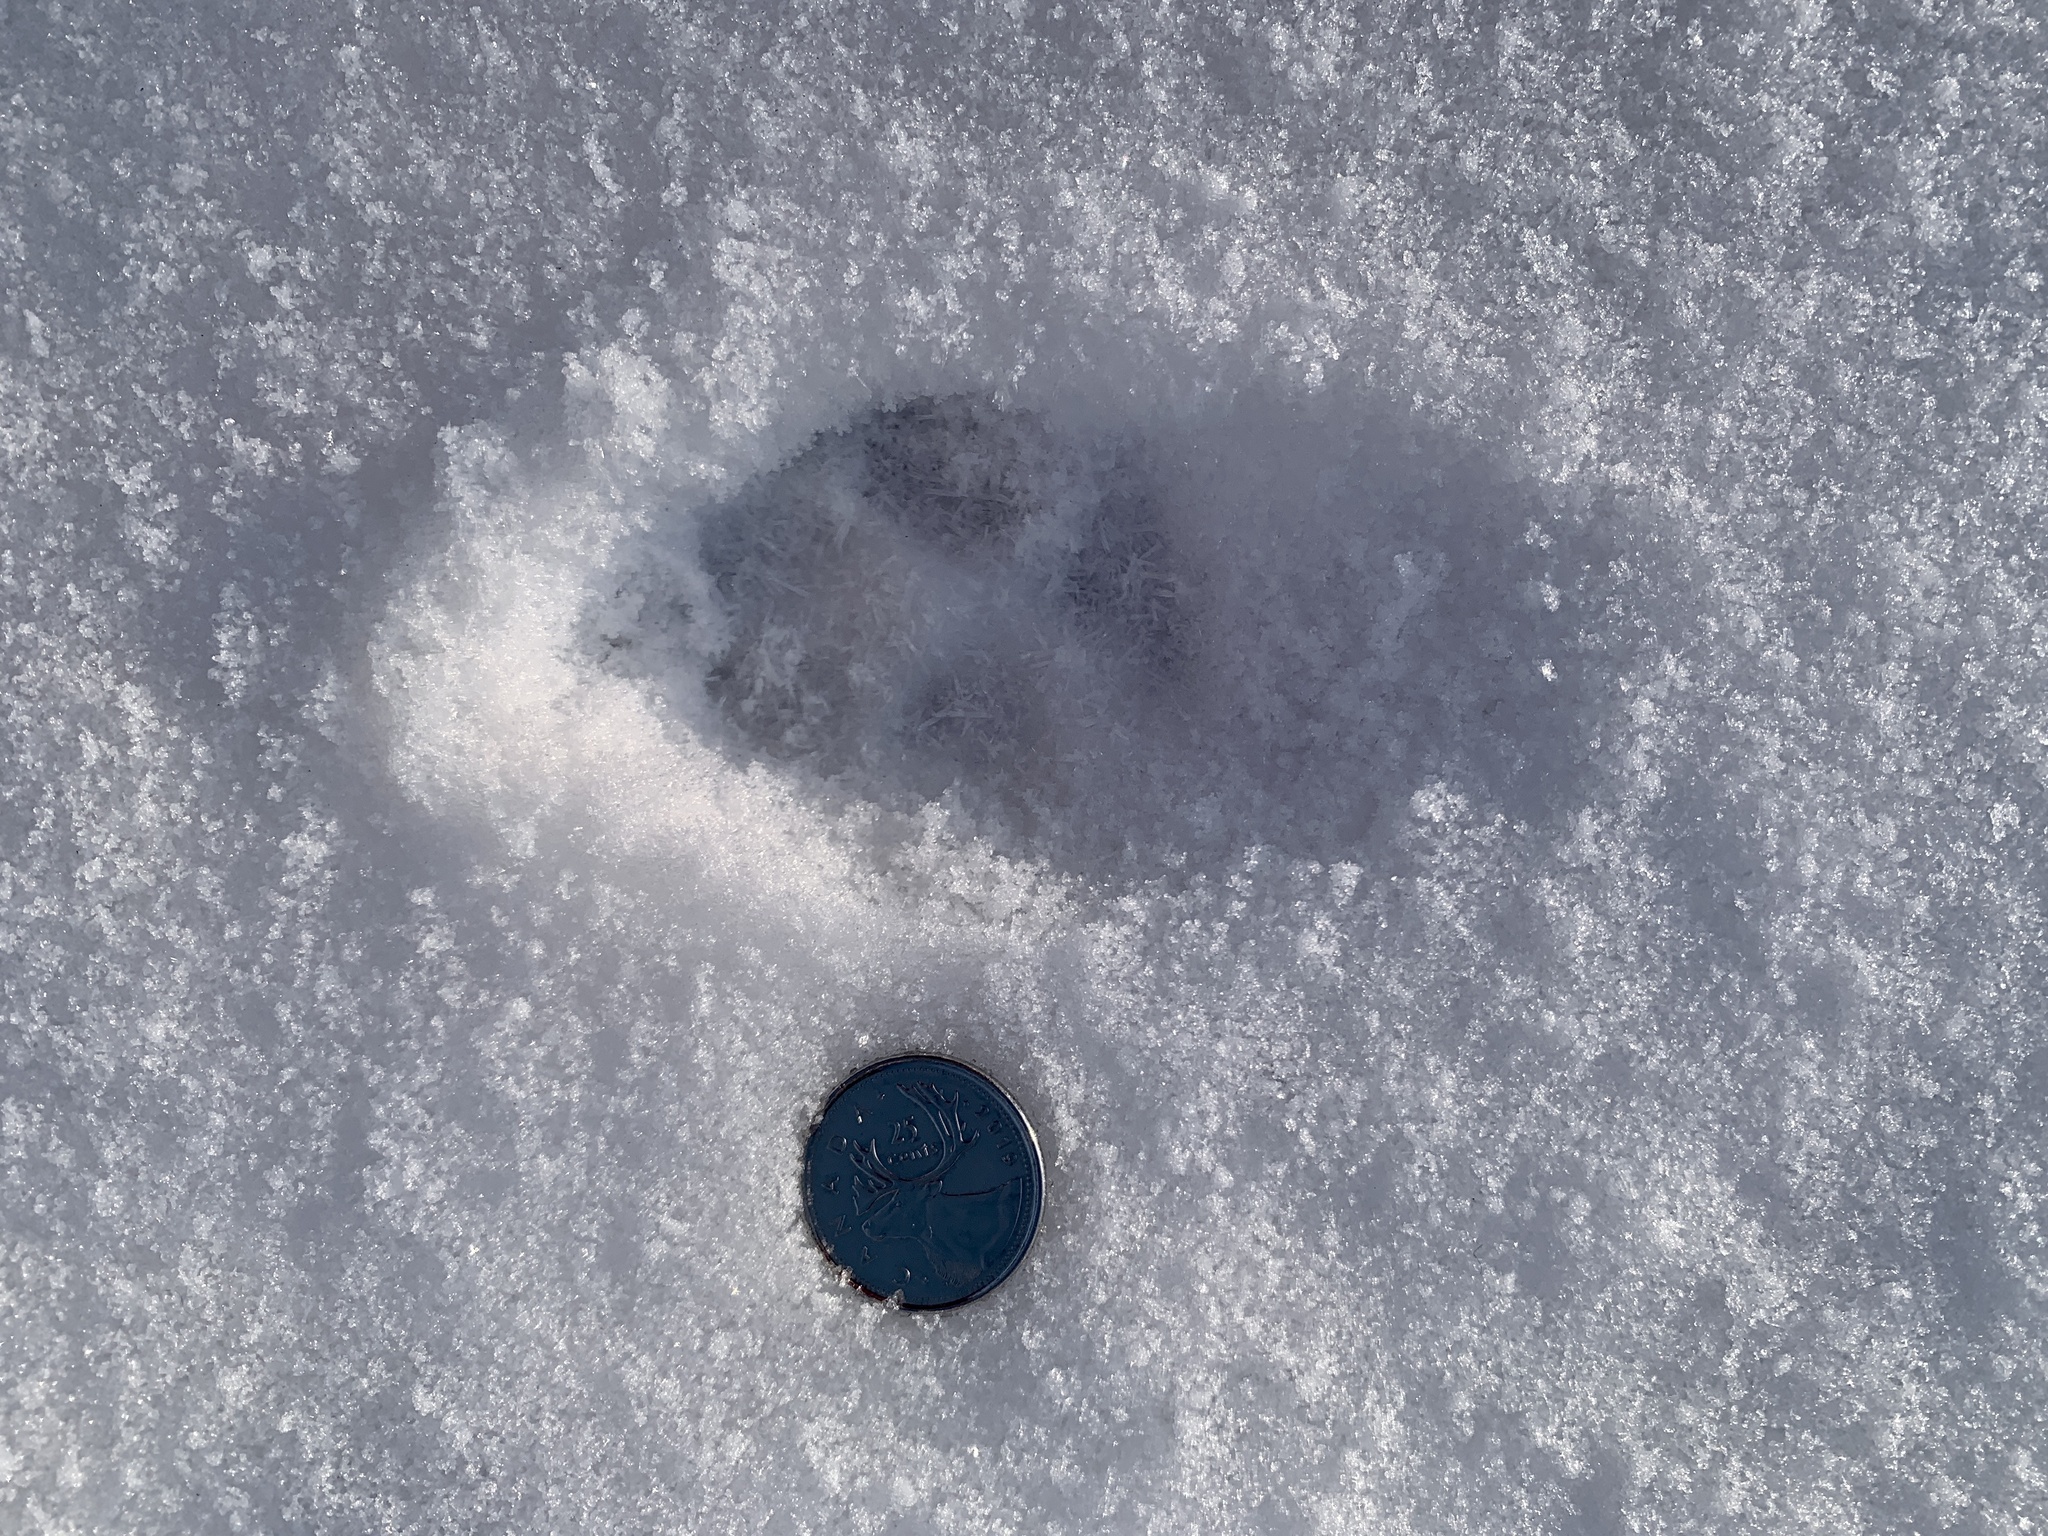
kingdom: Animalia
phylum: Chordata
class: Mammalia
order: Carnivora
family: Canidae
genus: Vulpes
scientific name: Vulpes vulpes
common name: Red fox
